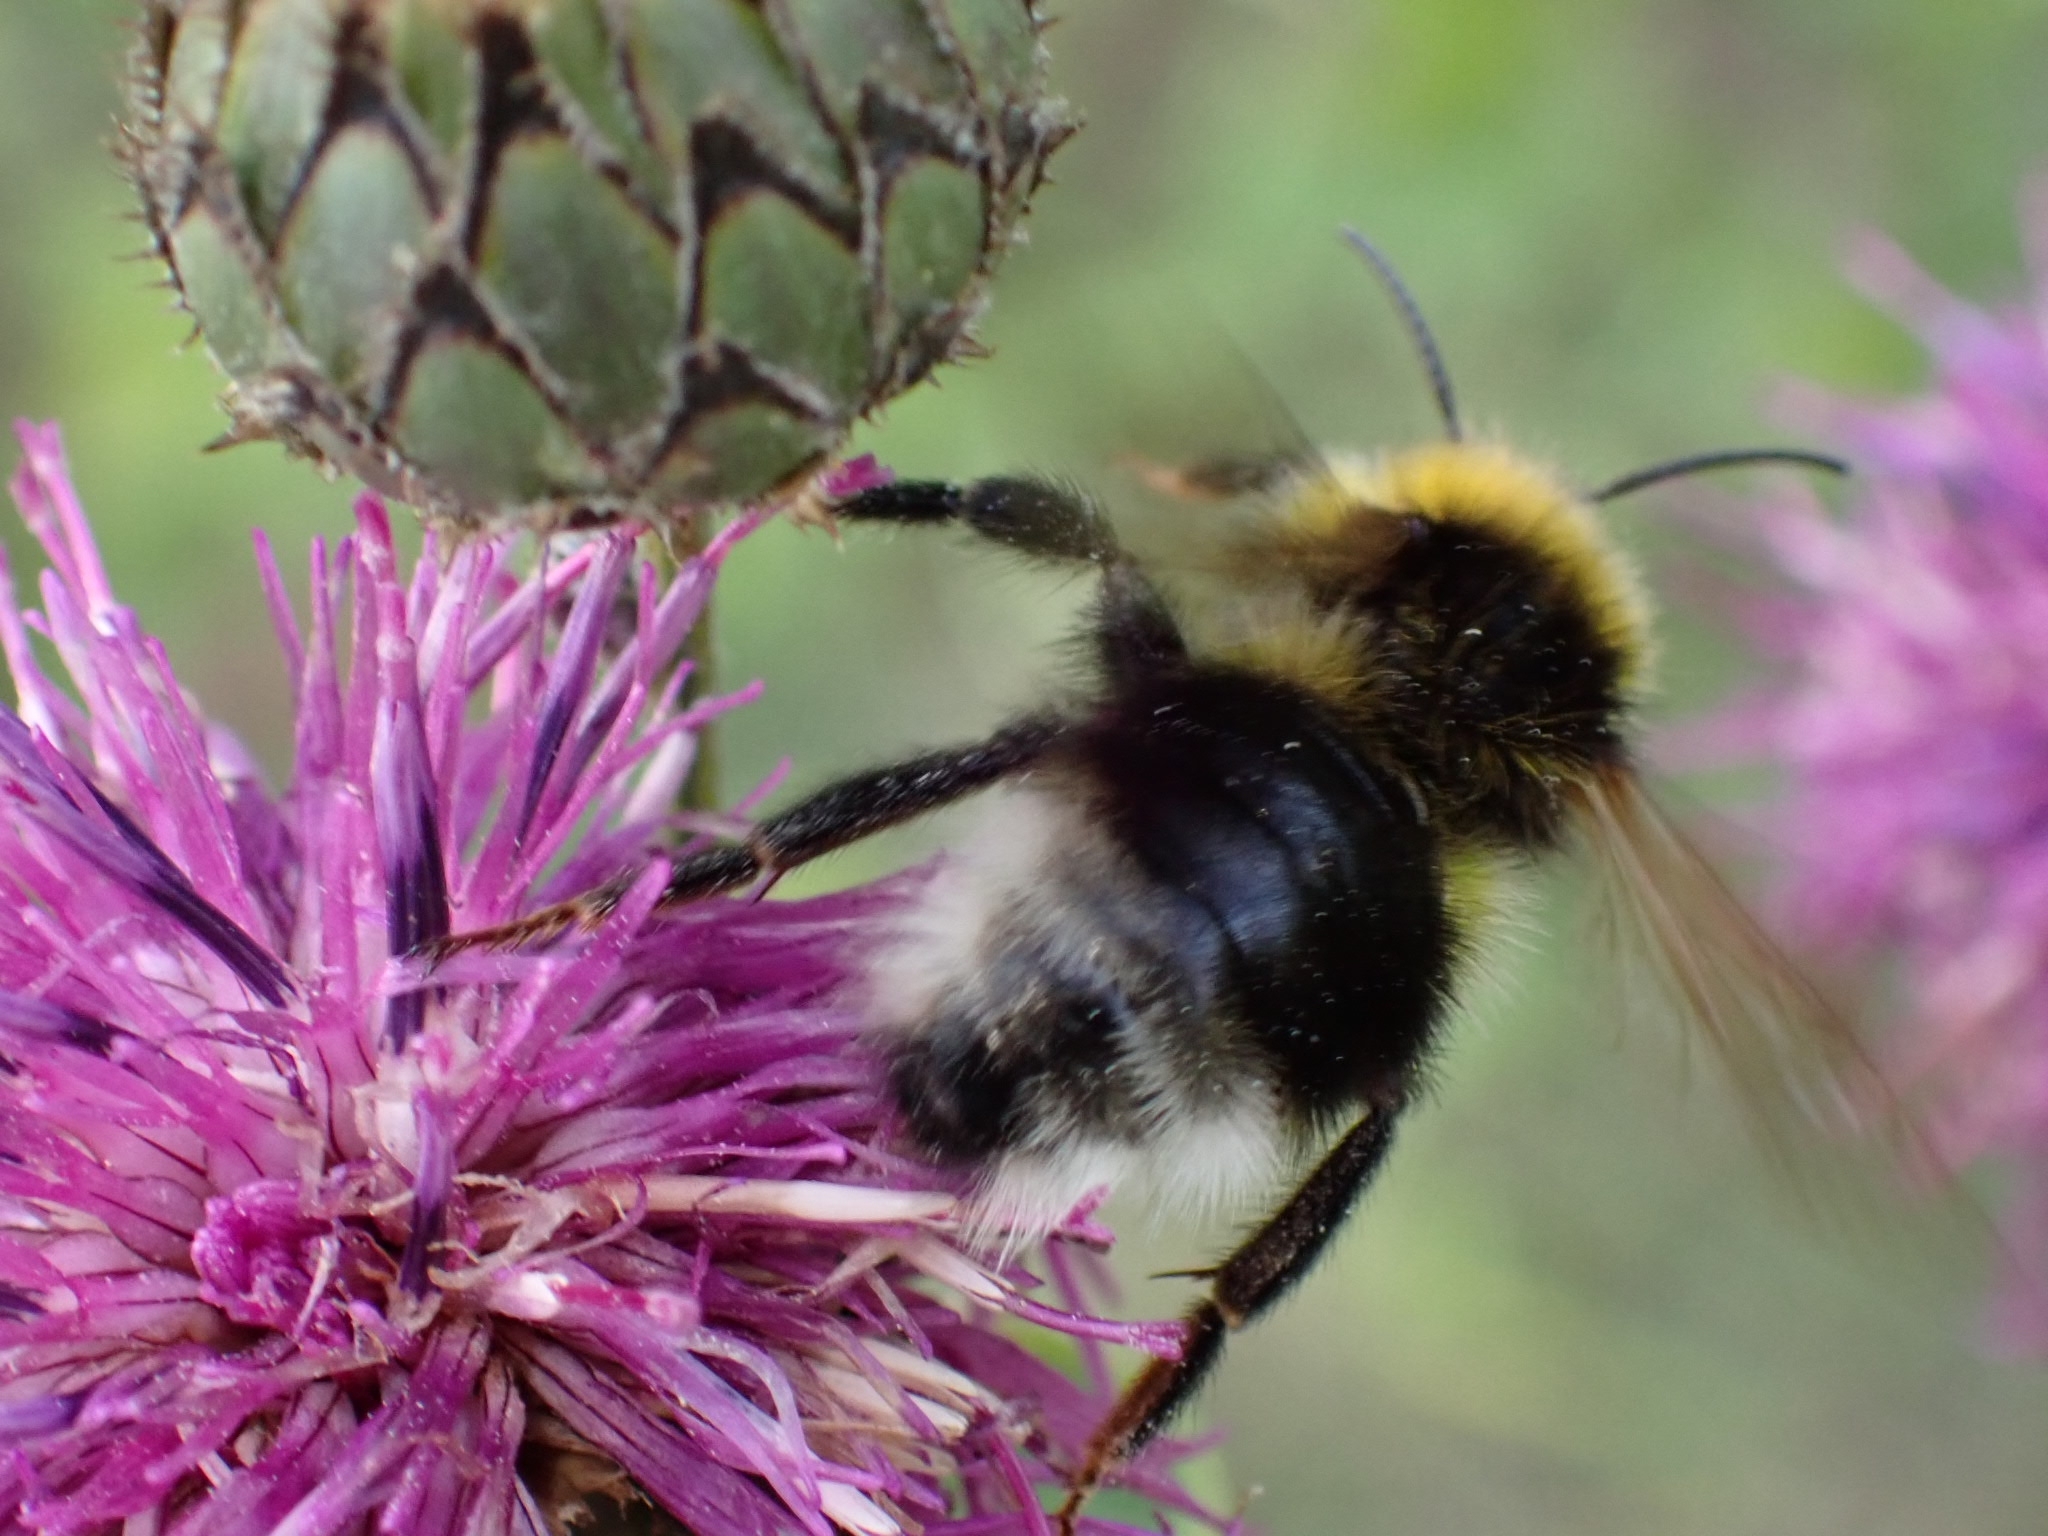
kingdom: Animalia
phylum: Arthropoda
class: Insecta
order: Hymenoptera
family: Apidae
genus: Bombus
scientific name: Bombus bohemicus
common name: Gypsy cuckoo bee
